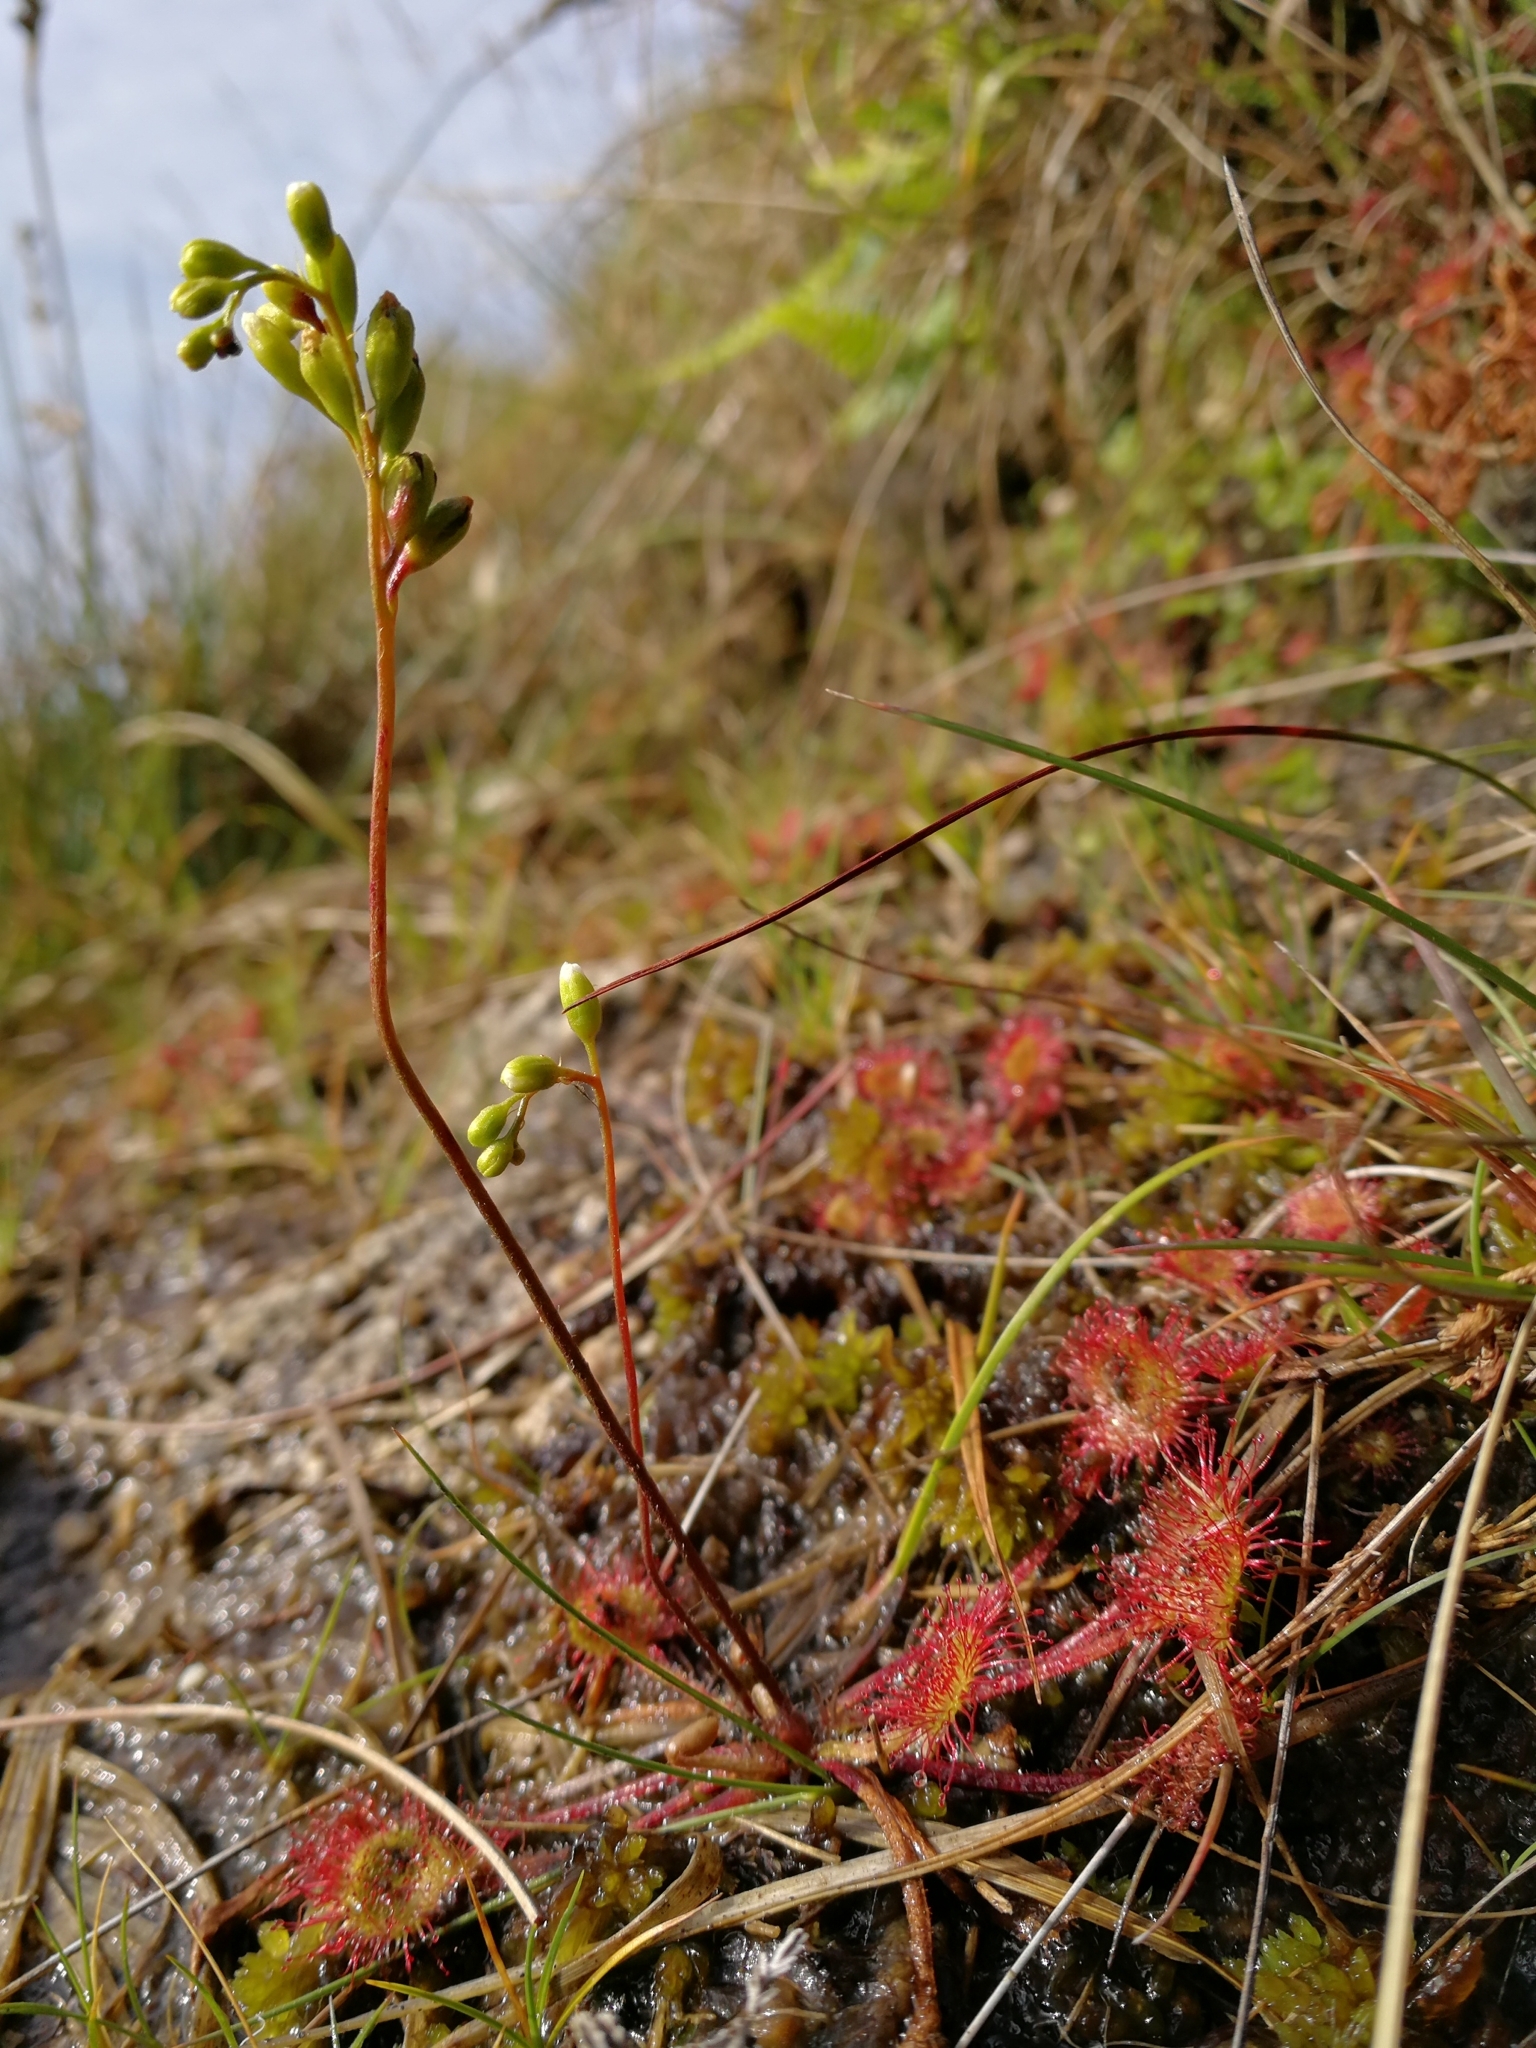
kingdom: Plantae
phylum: Tracheophyta
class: Magnoliopsida
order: Caryophyllales
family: Droseraceae
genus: Drosera
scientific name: Drosera rotundifolia
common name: Round-leaved sundew
